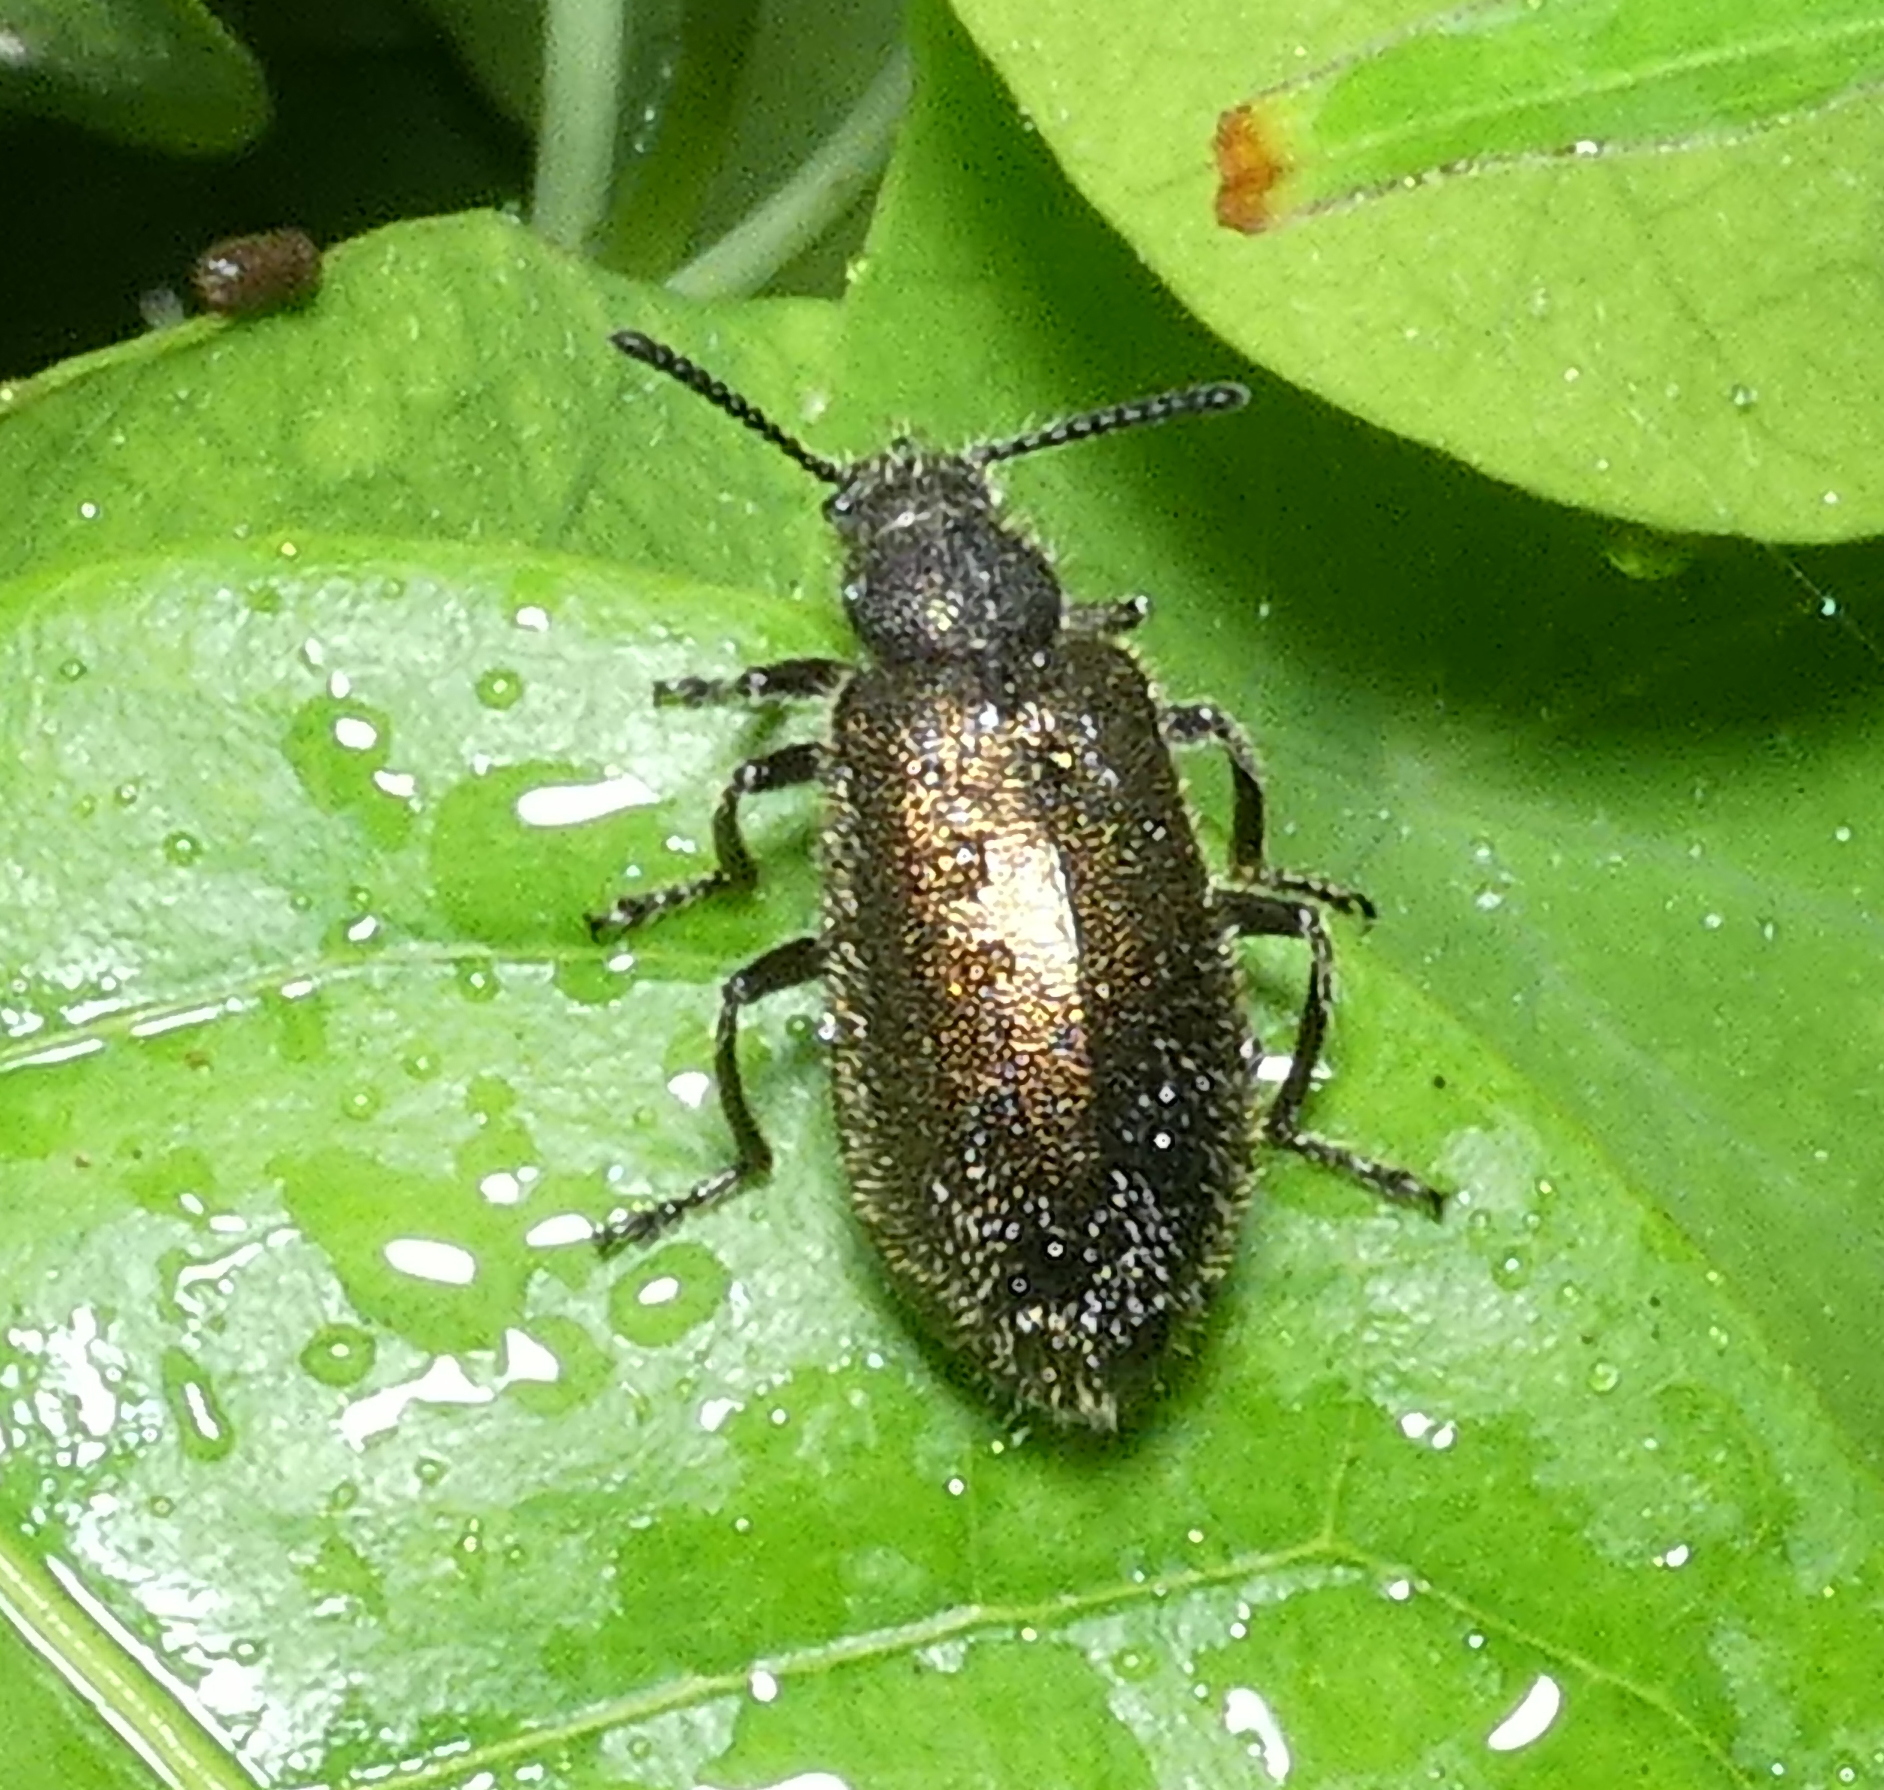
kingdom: Animalia
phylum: Arthropoda
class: Insecta
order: Coleoptera
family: Tenebrionidae
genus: Lagria
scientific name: Lagria villosa
